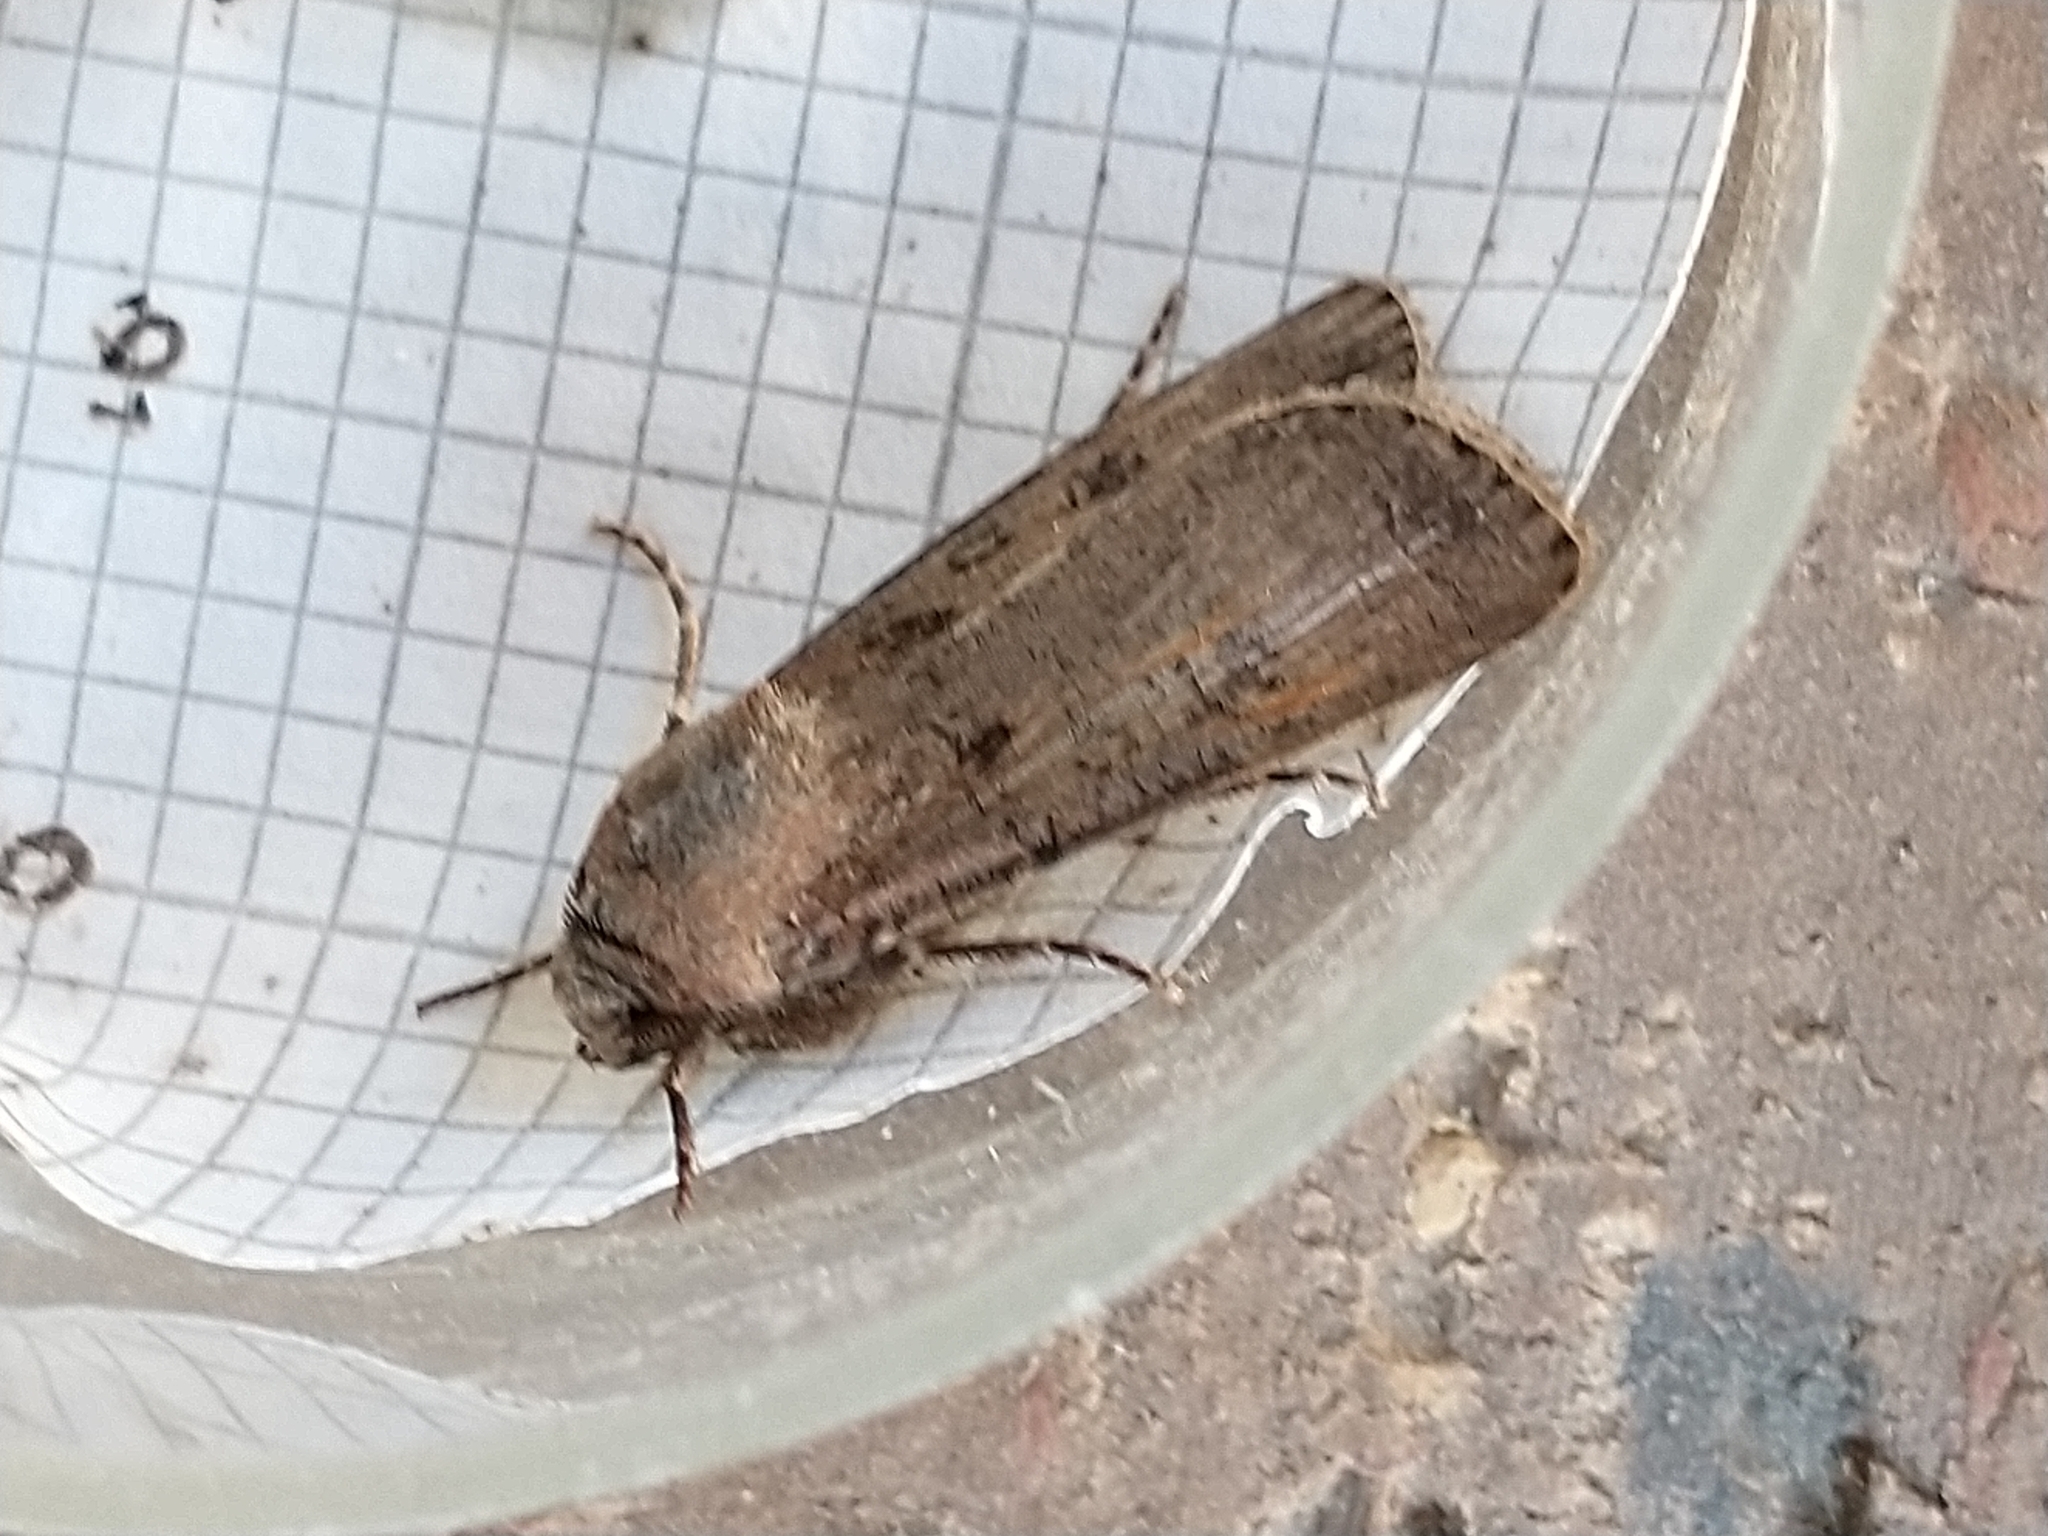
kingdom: Animalia
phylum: Arthropoda
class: Insecta
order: Lepidoptera
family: Noctuidae
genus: Agrotis
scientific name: Agrotis segetum
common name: Turnip moth
